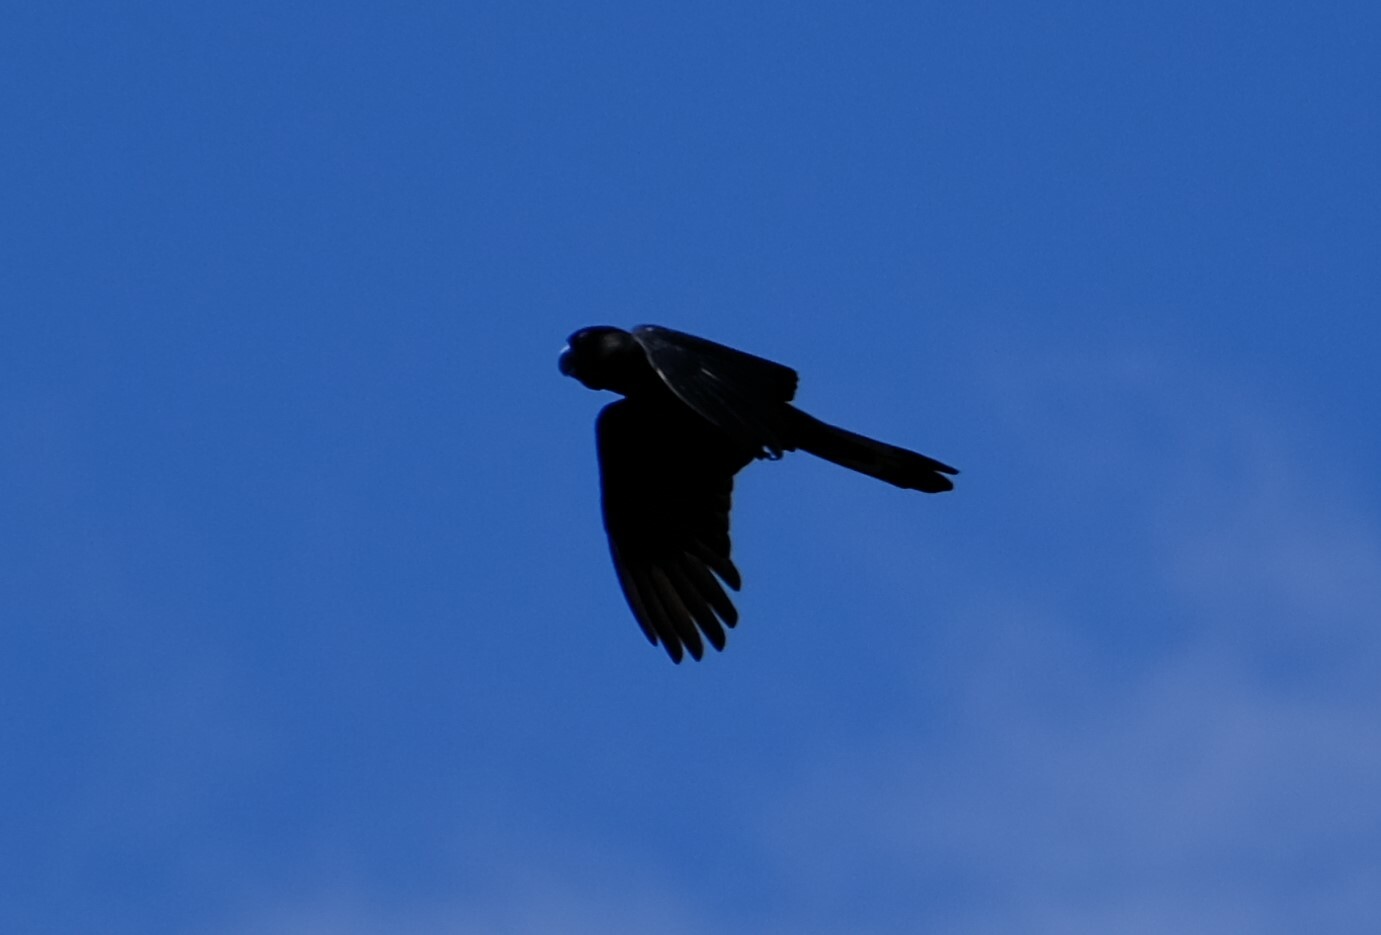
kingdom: Animalia
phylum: Chordata
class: Aves
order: Psittaciformes
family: Cacatuidae
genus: Zanda
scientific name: Zanda latirostris
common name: Short-billed black-cockatoo
